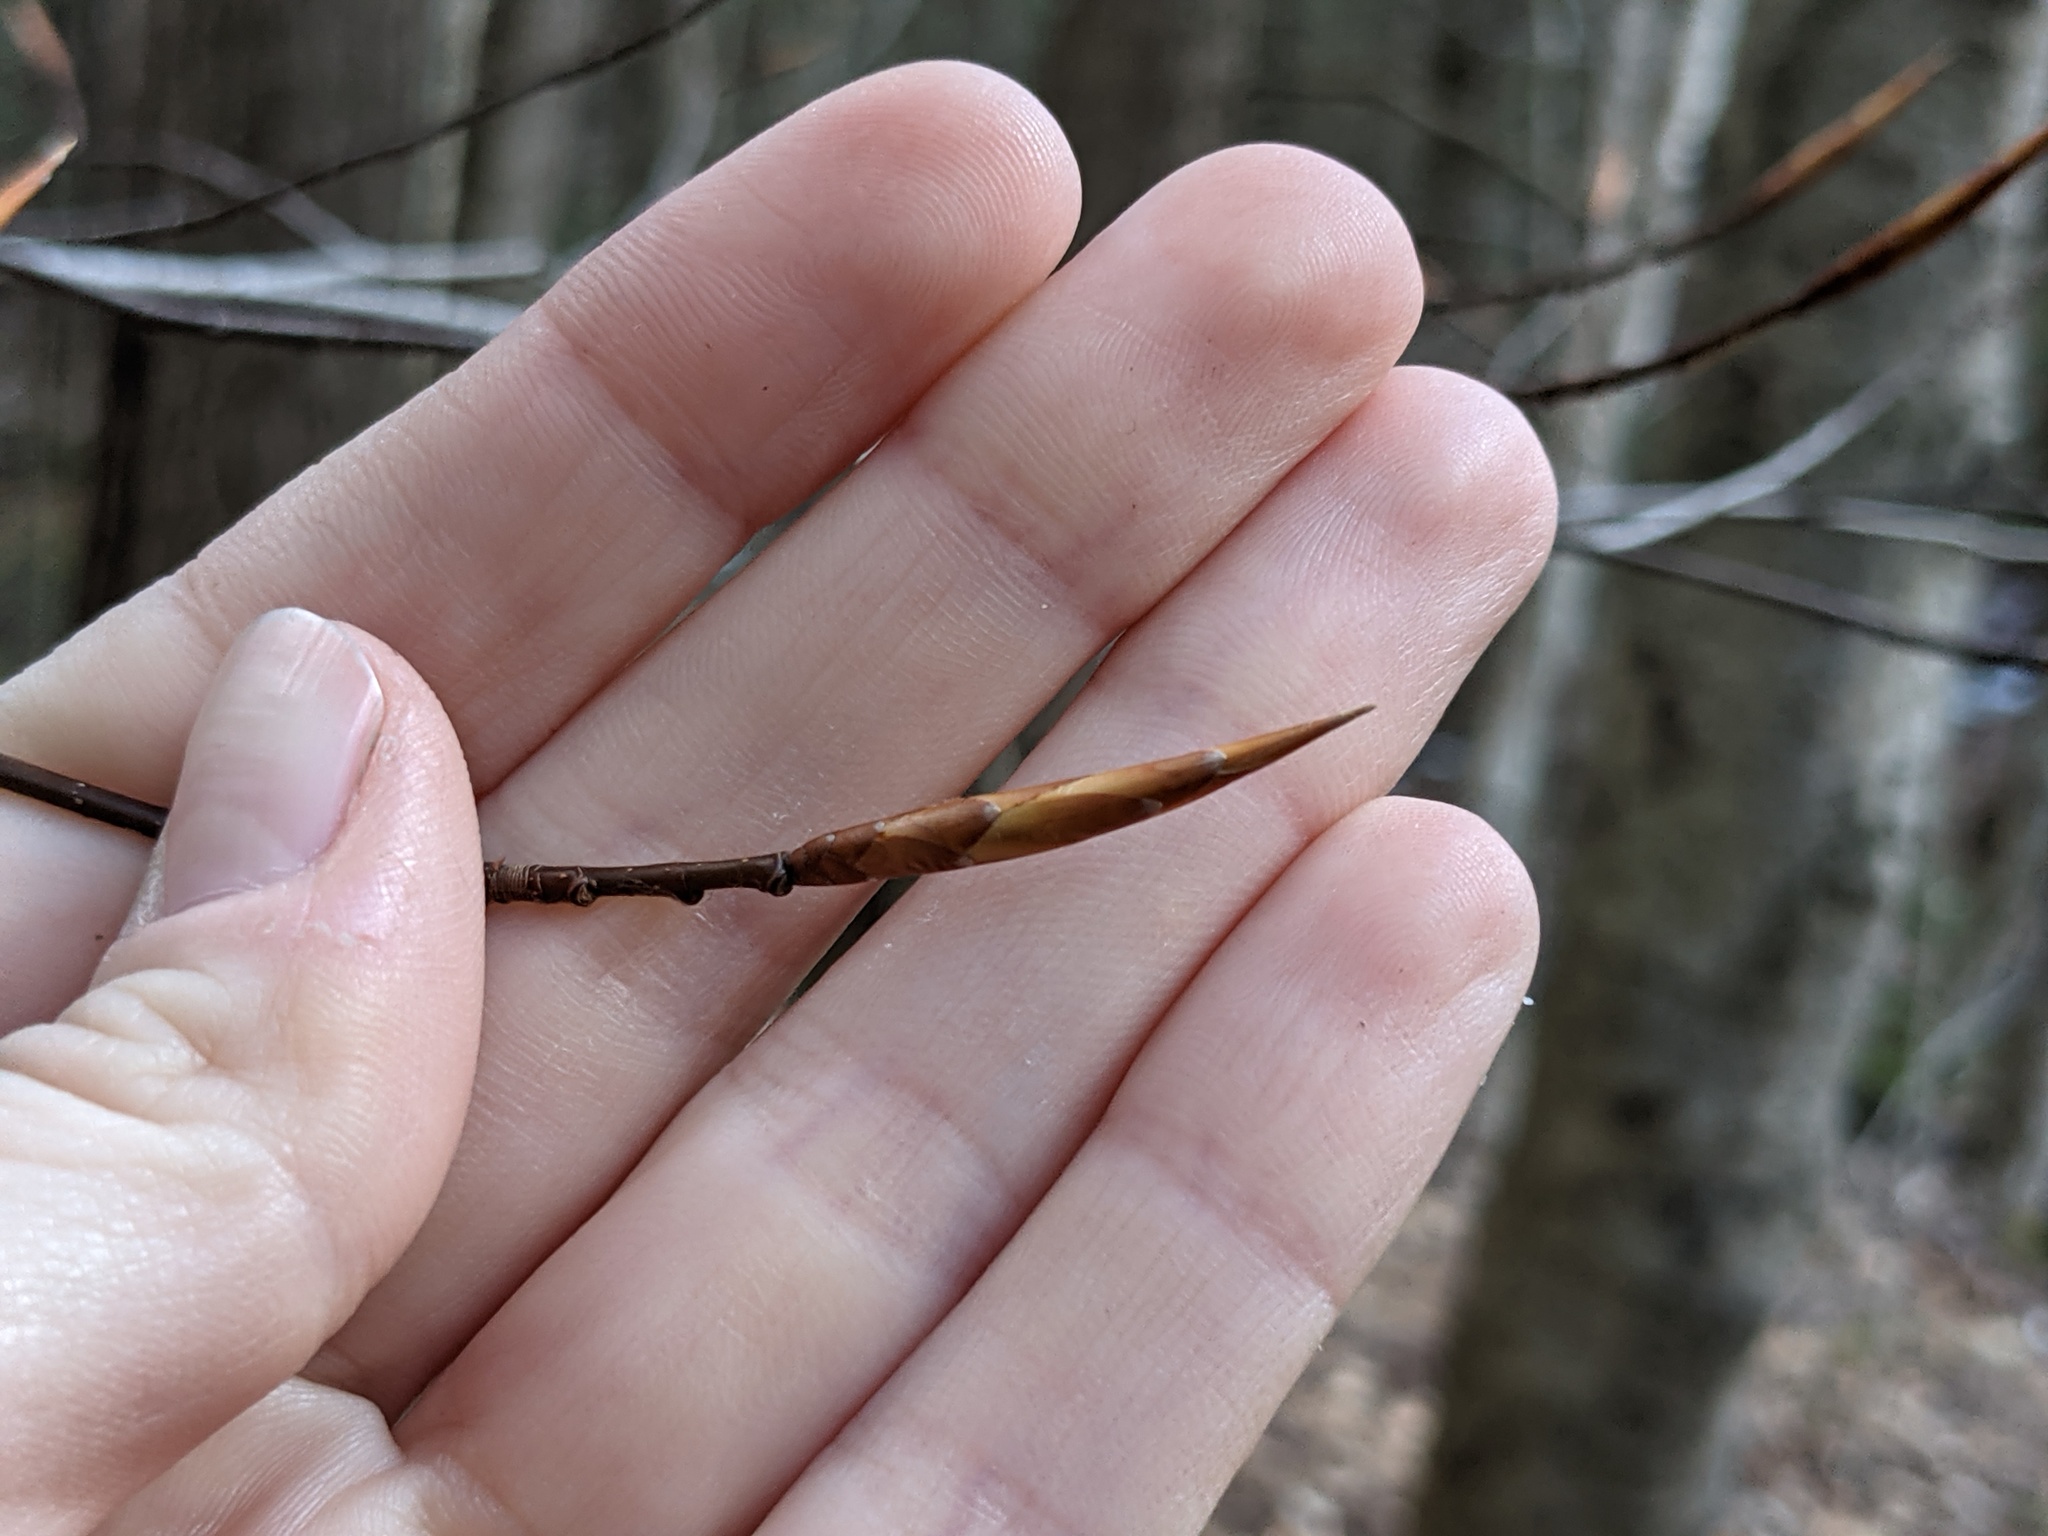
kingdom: Plantae
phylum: Tracheophyta
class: Magnoliopsida
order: Fagales
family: Fagaceae
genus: Fagus
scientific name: Fagus grandifolia
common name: American beech
